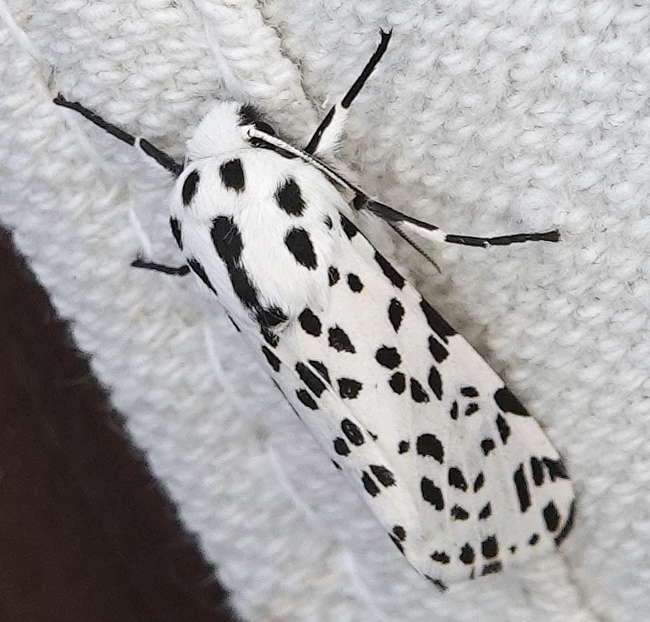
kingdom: Animalia
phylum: Arthropoda
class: Insecta
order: Lepidoptera
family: Erebidae
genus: Hypercompe
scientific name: Hypercompe permaculata
